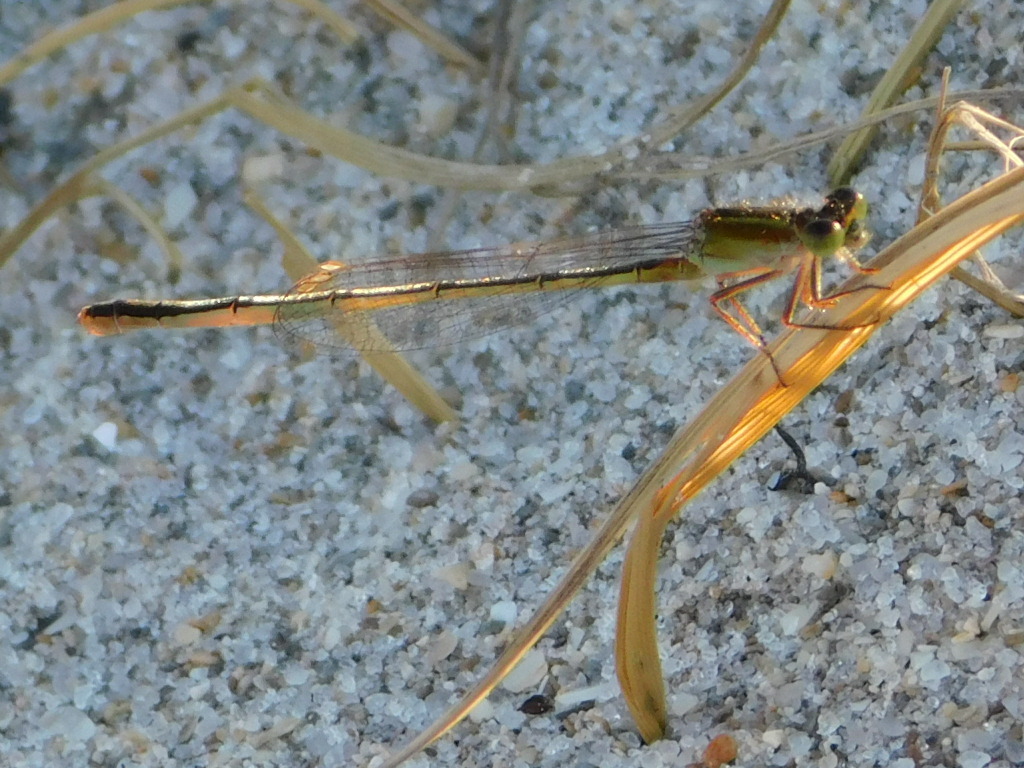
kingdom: Animalia
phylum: Arthropoda
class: Insecta
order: Odonata
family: Coenagrionidae
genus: Ischnura
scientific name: Ischnura ramburii
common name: Rambur's forktail
